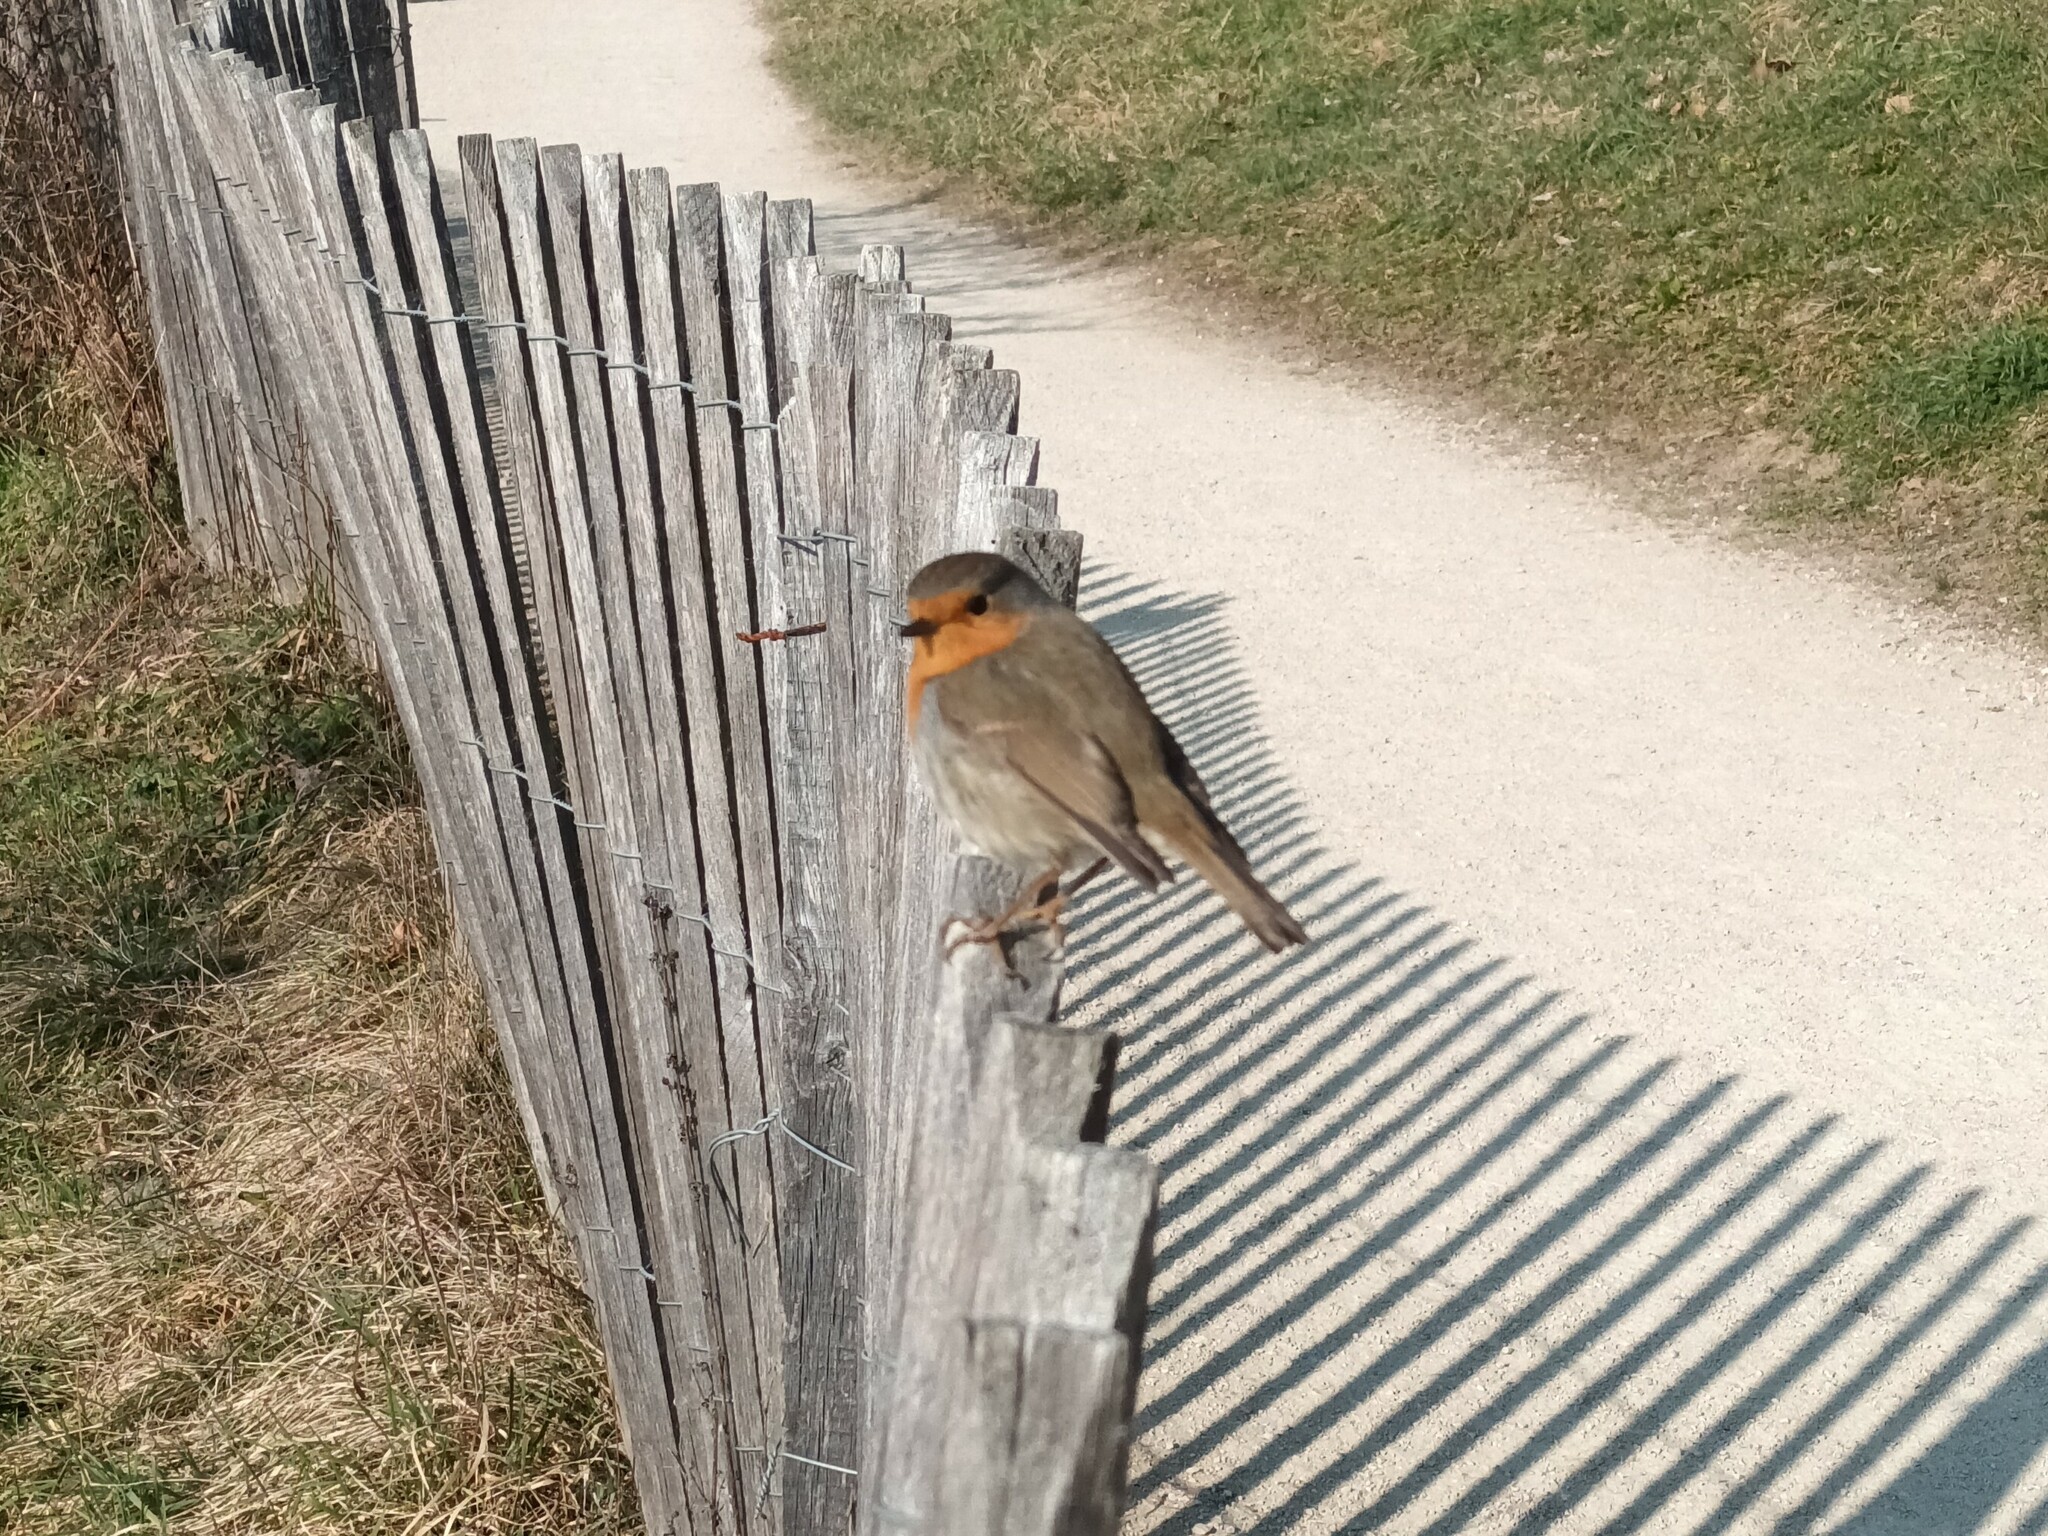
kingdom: Animalia
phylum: Chordata
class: Aves
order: Passeriformes
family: Muscicapidae
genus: Erithacus
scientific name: Erithacus rubecula
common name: European robin
